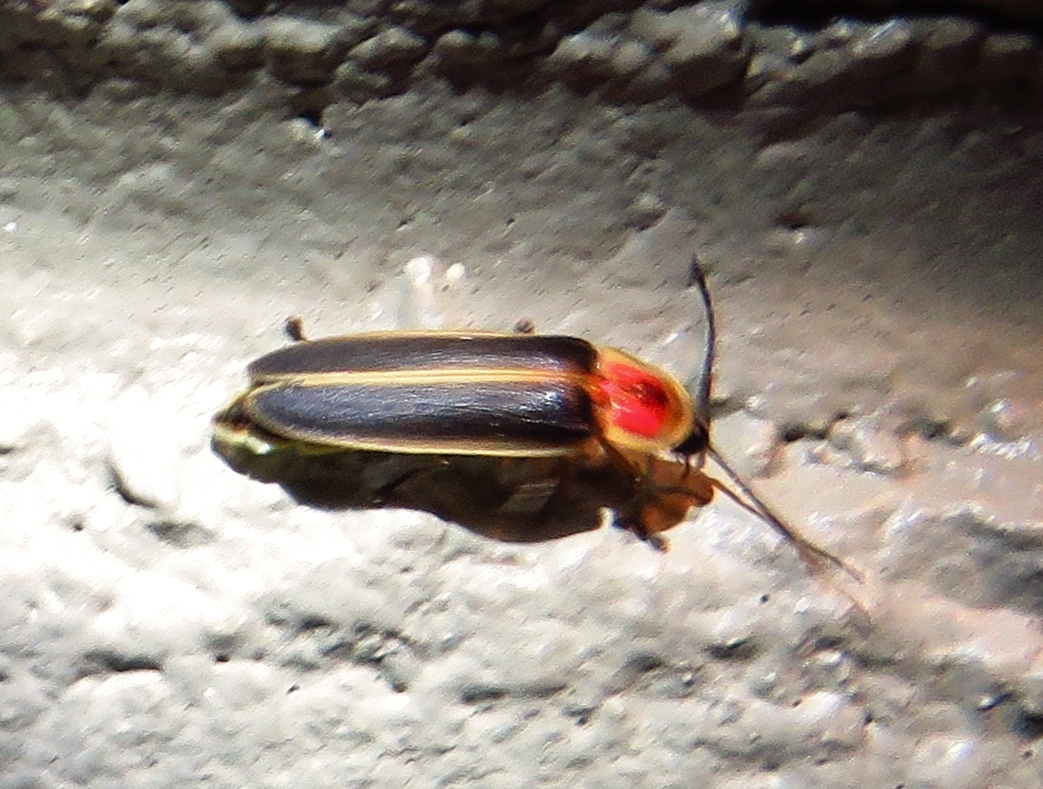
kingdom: Animalia
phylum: Arthropoda
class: Insecta
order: Coleoptera
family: Lampyridae
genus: Photinus
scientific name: Photinus pyralis
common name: Big dipper firefly
